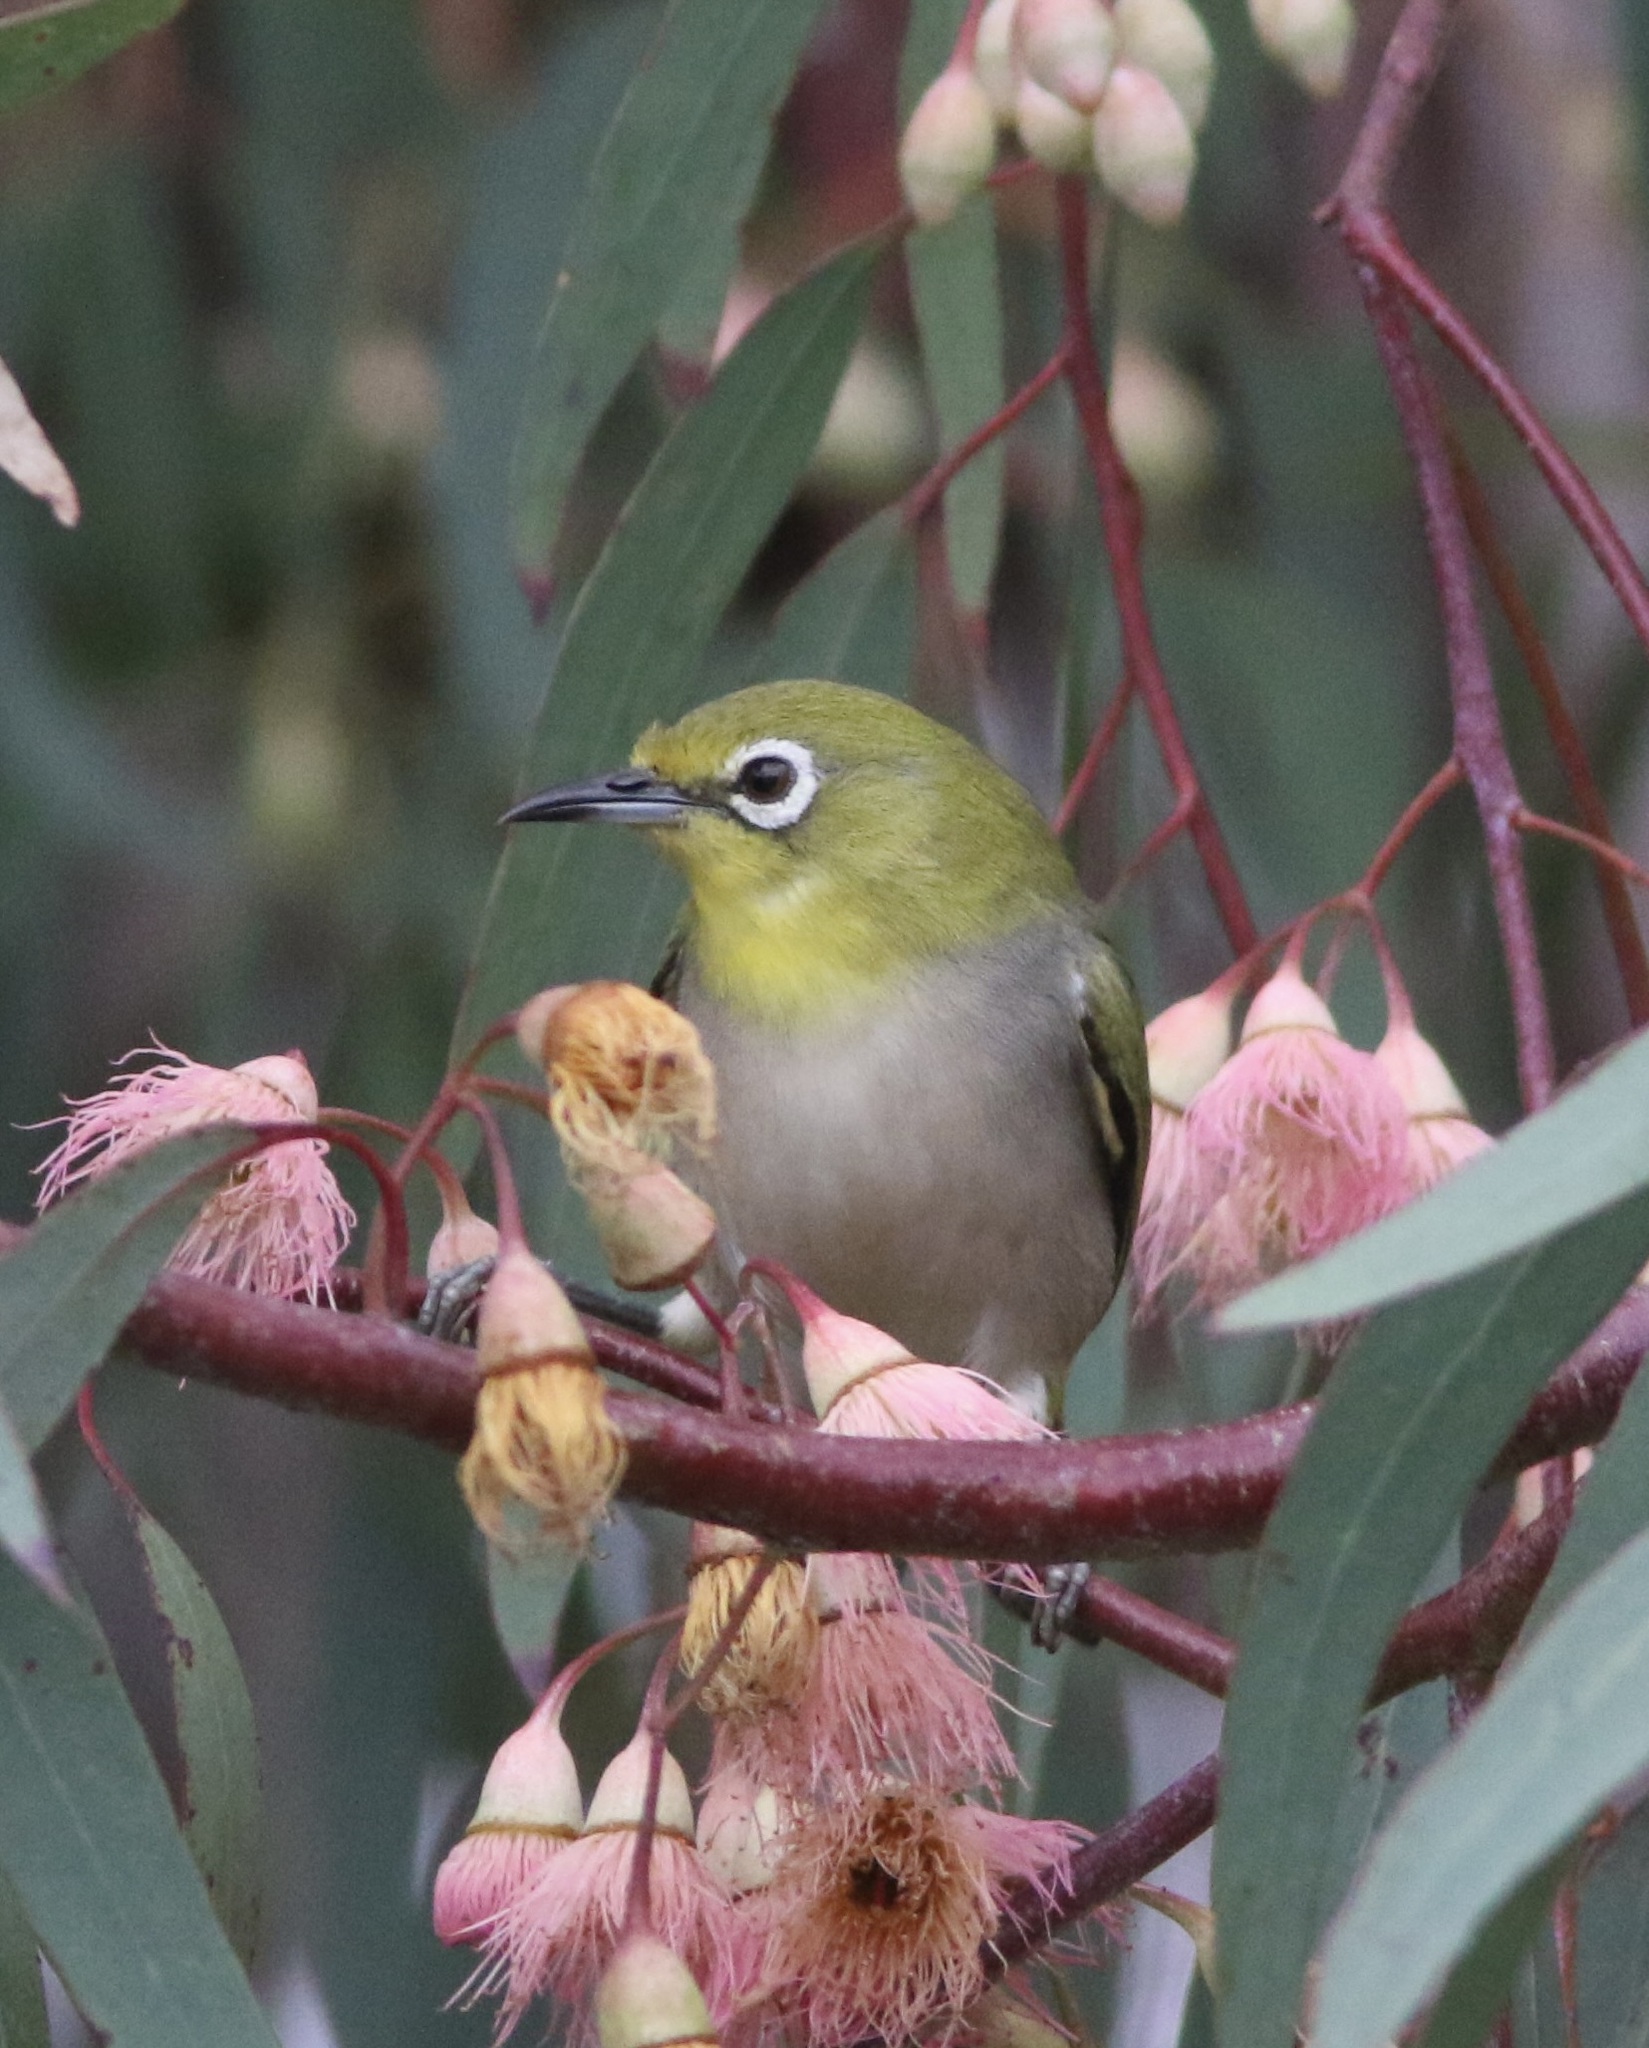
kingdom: Animalia
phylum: Chordata
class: Aves
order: Passeriformes
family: Zosteropidae
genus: Zosterops
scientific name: Zosterops simplex
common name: Swinhoe's white-eye
